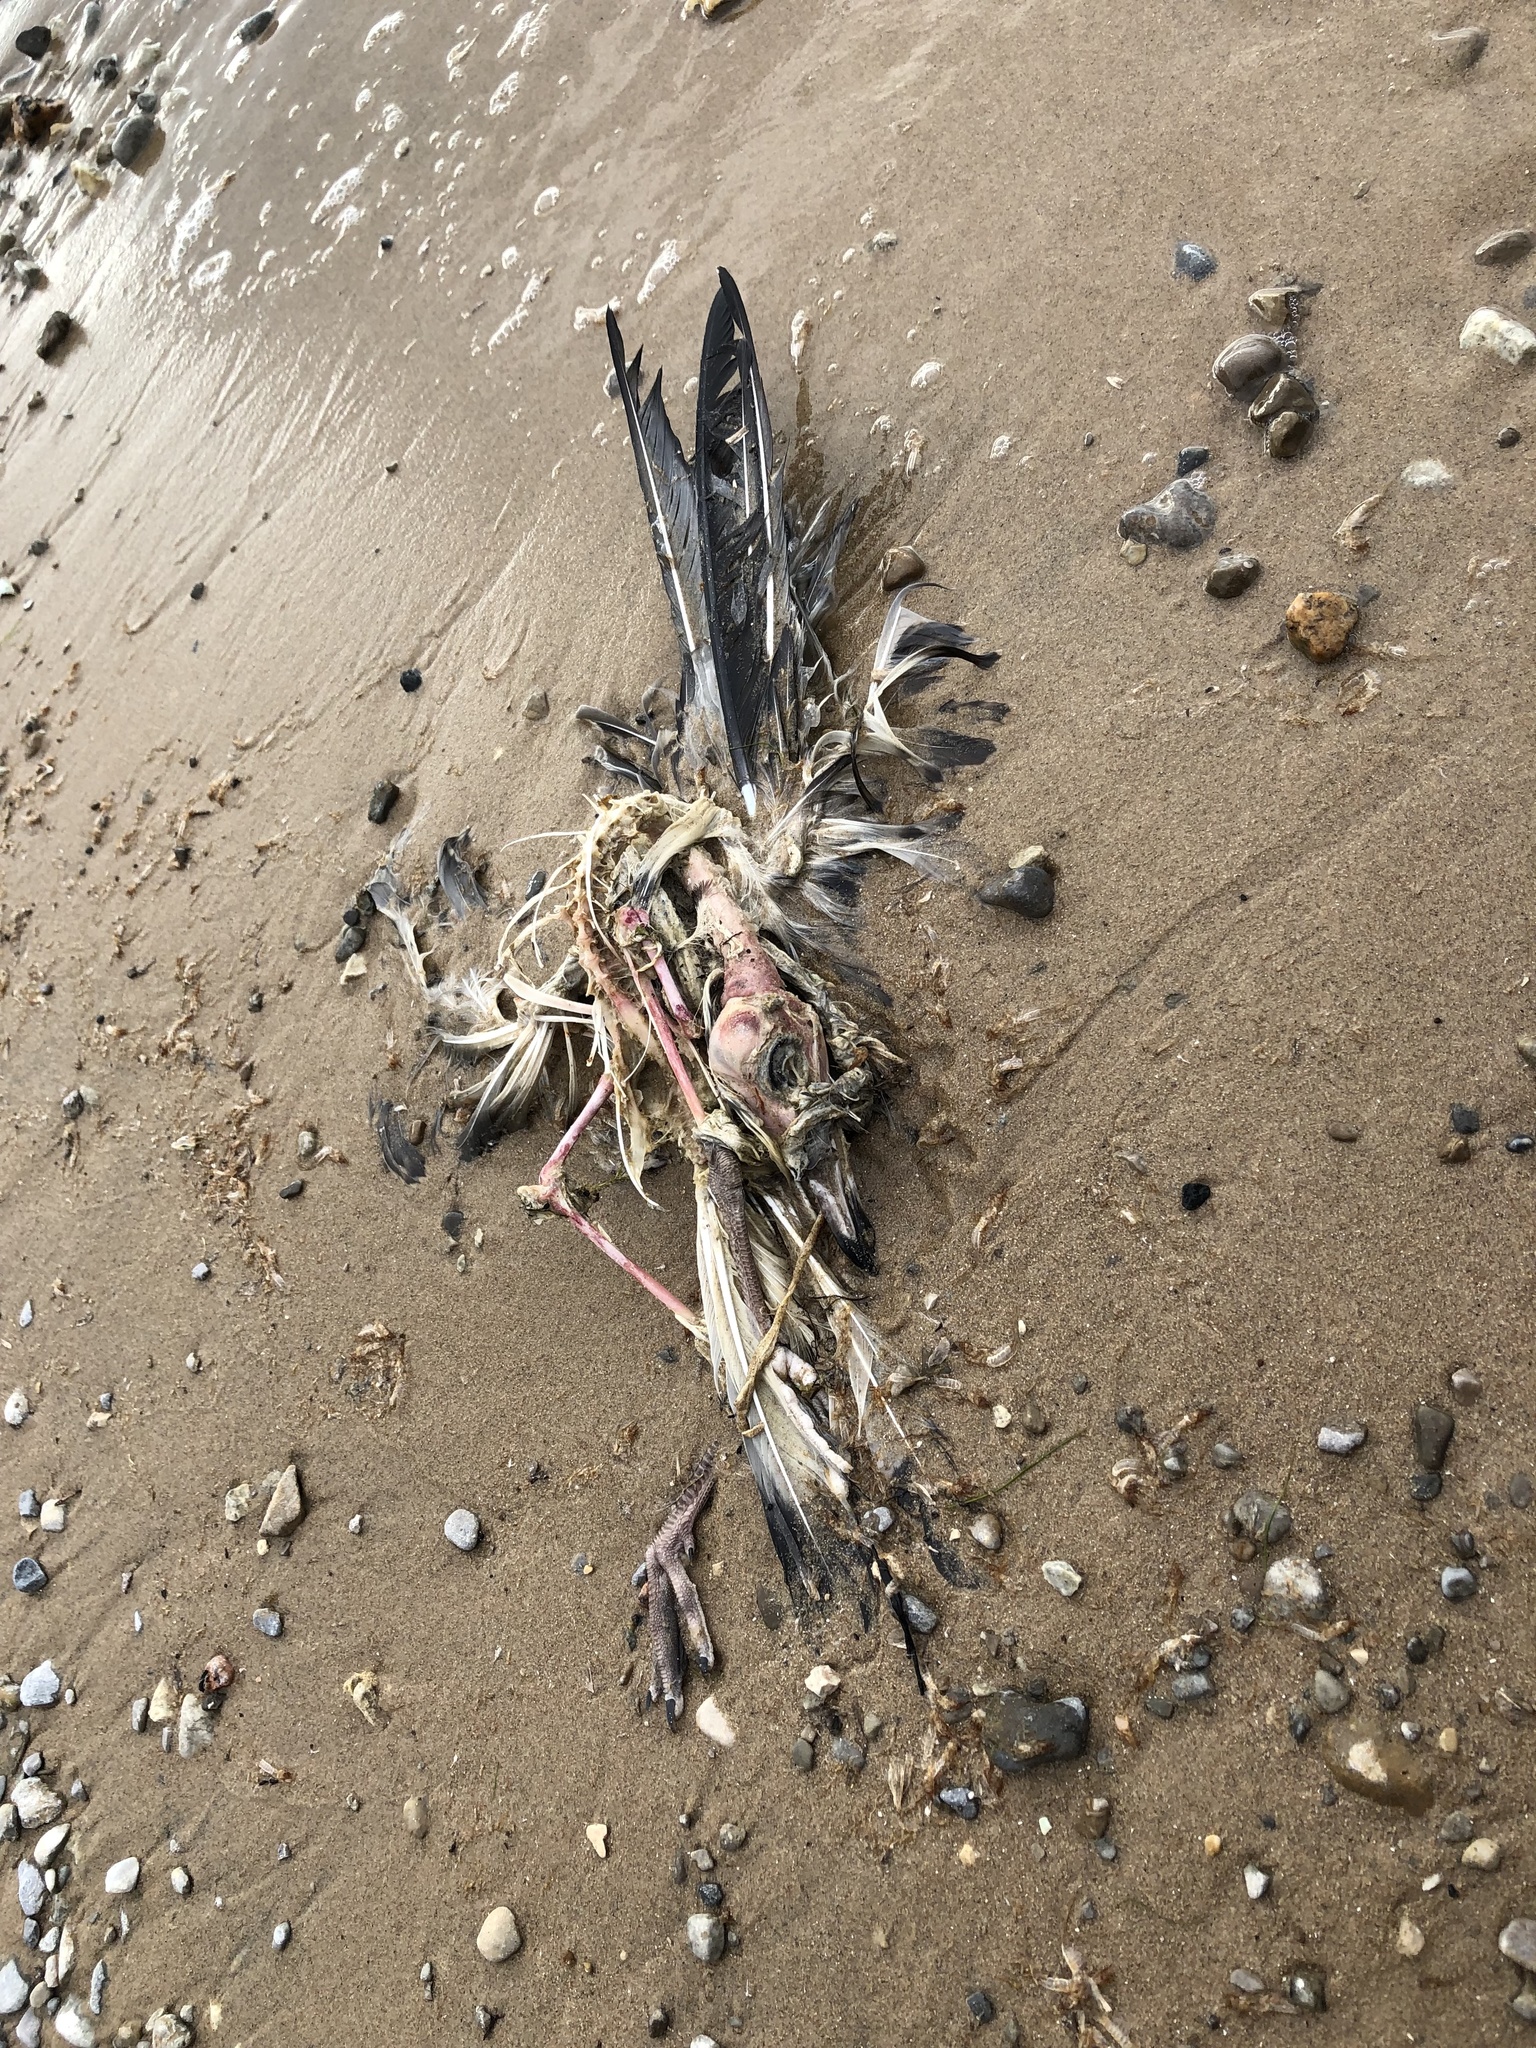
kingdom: Animalia
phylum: Chordata
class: Aves
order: Charadriiformes
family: Laridae
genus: Larus
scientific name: Larus delawarensis
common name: Ring-billed gull
